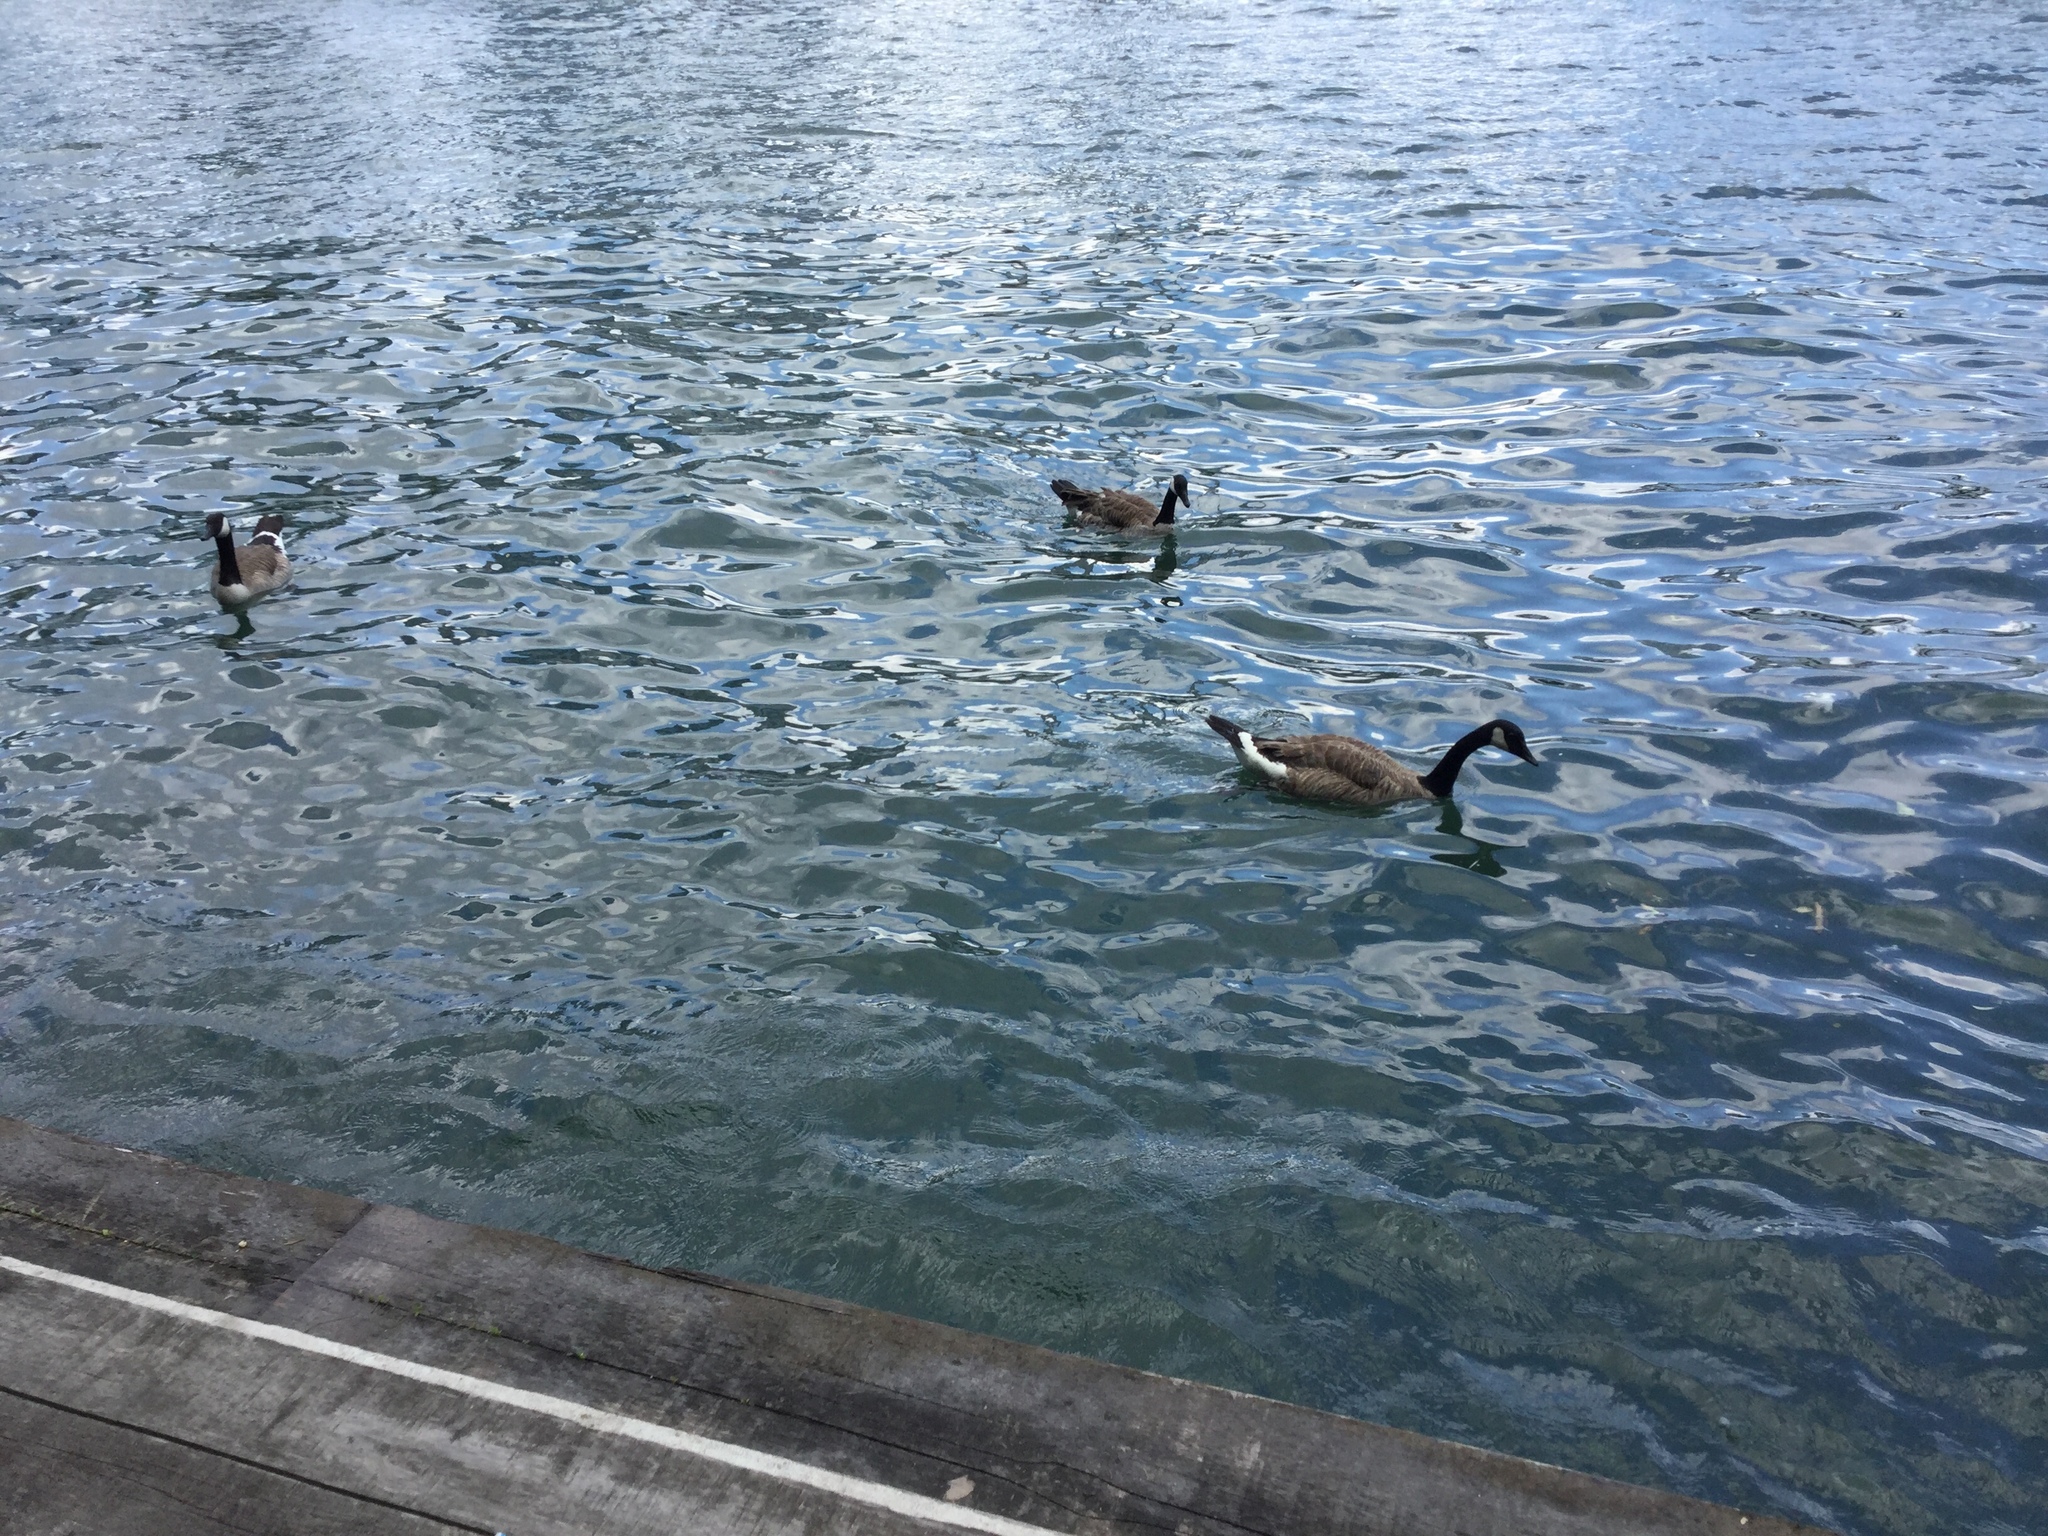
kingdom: Animalia
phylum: Chordata
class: Aves
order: Anseriformes
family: Anatidae
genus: Branta
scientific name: Branta canadensis
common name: Canada goose
